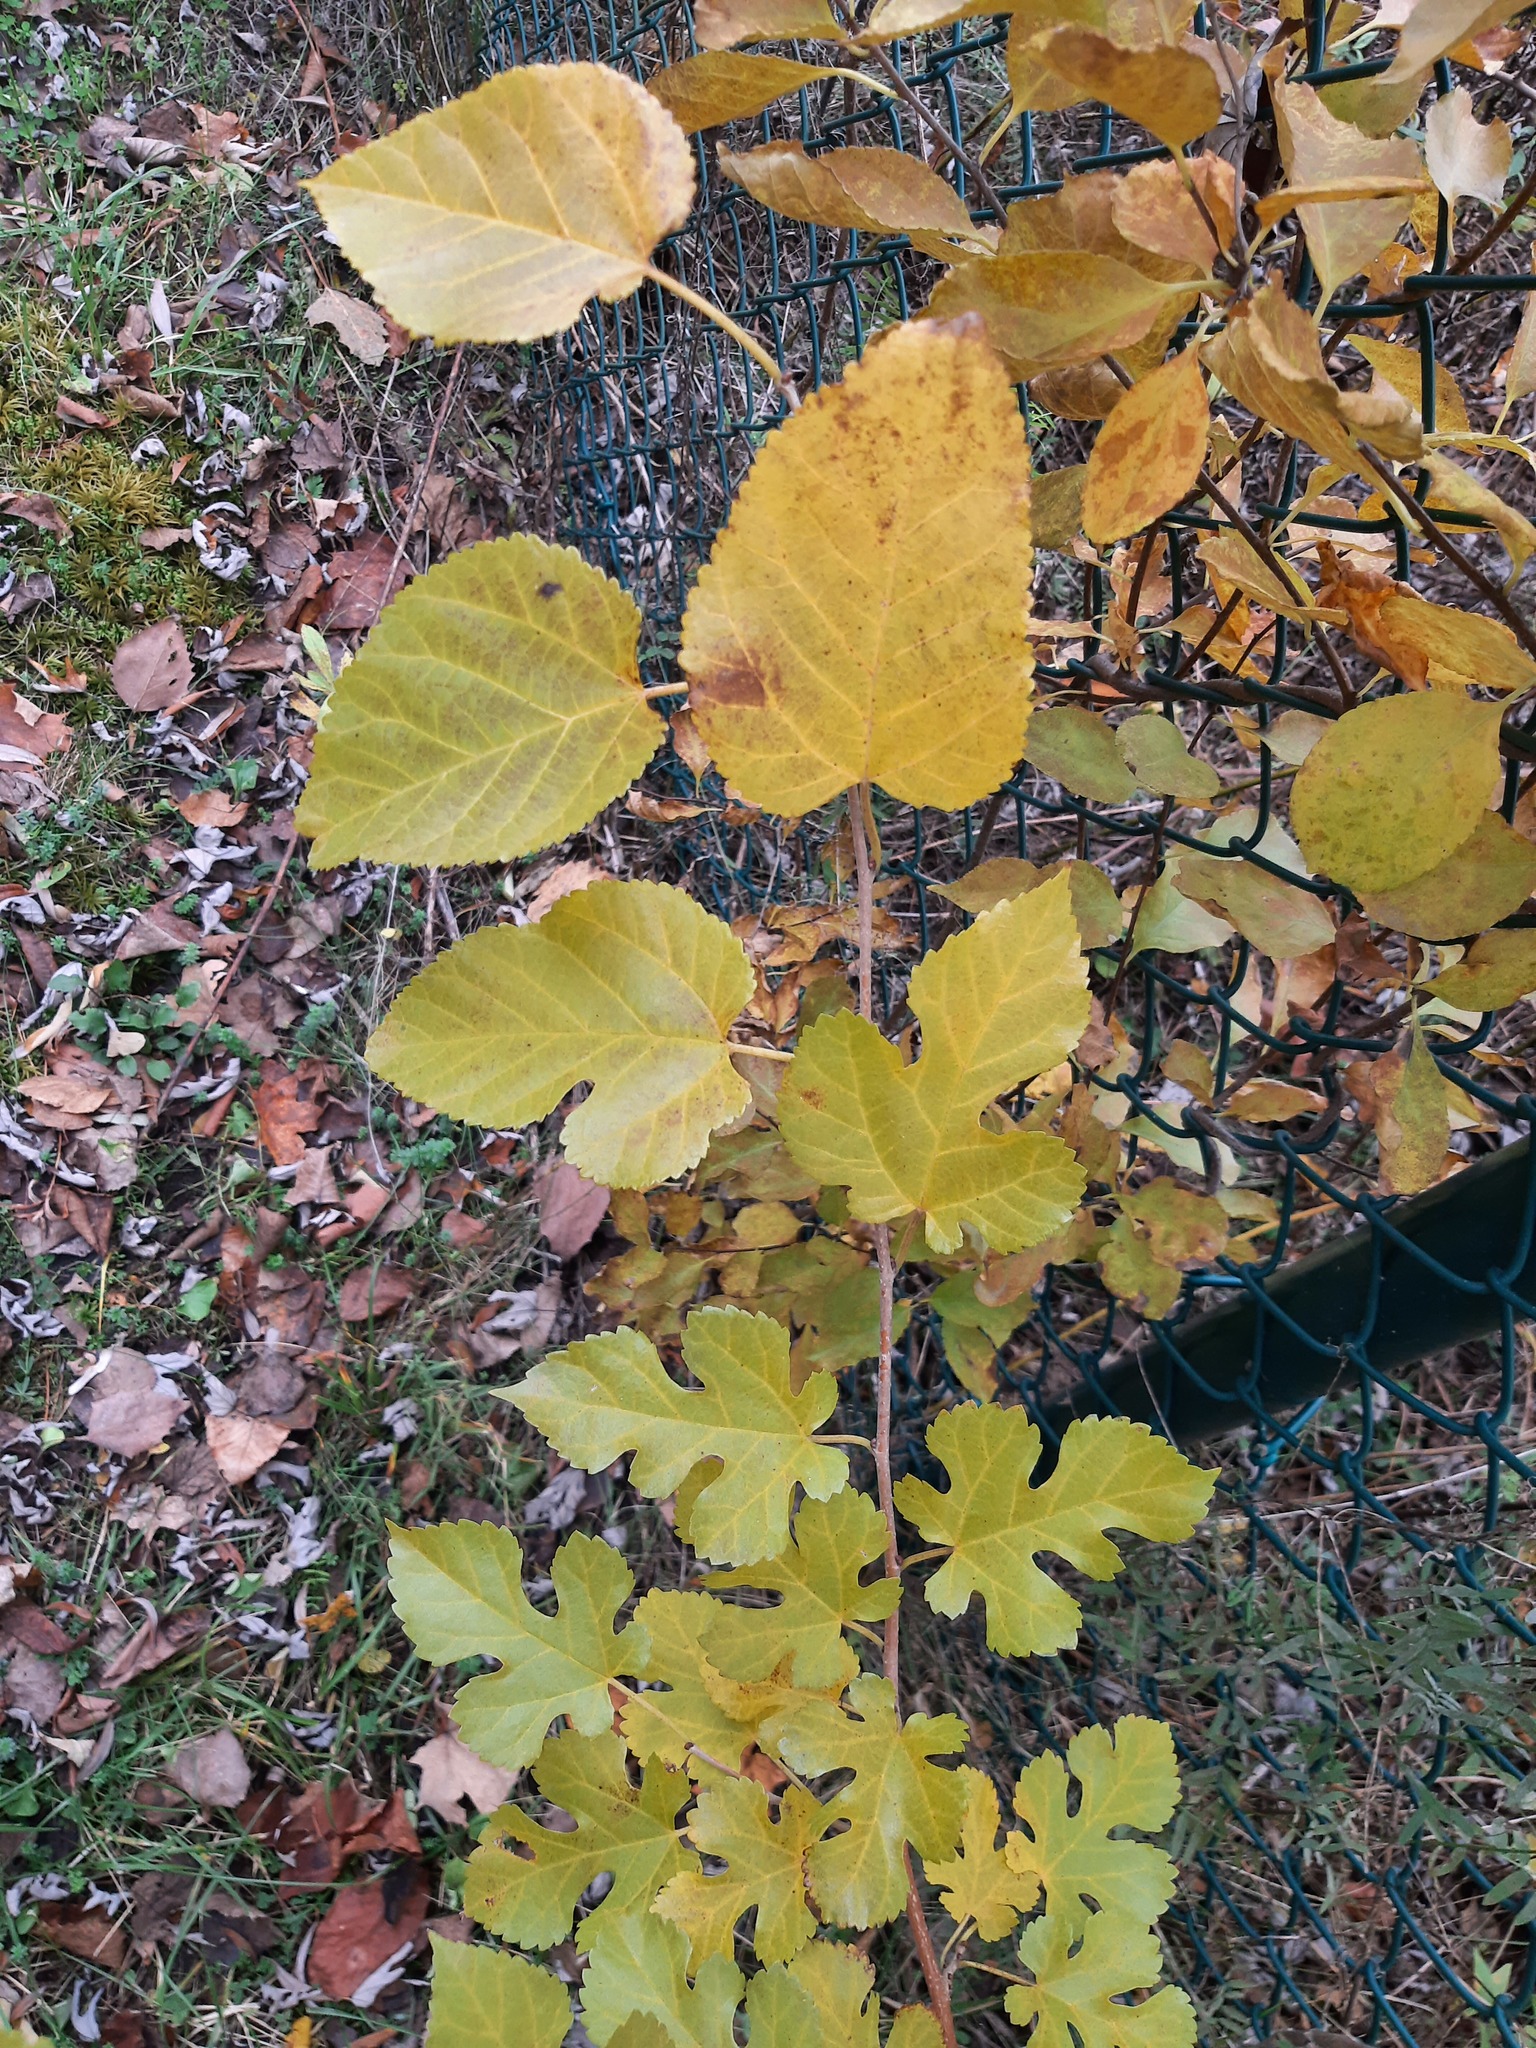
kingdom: Plantae
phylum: Tracheophyta
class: Magnoliopsida
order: Rosales
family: Moraceae
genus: Morus
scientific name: Morus alba
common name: White mulberry
